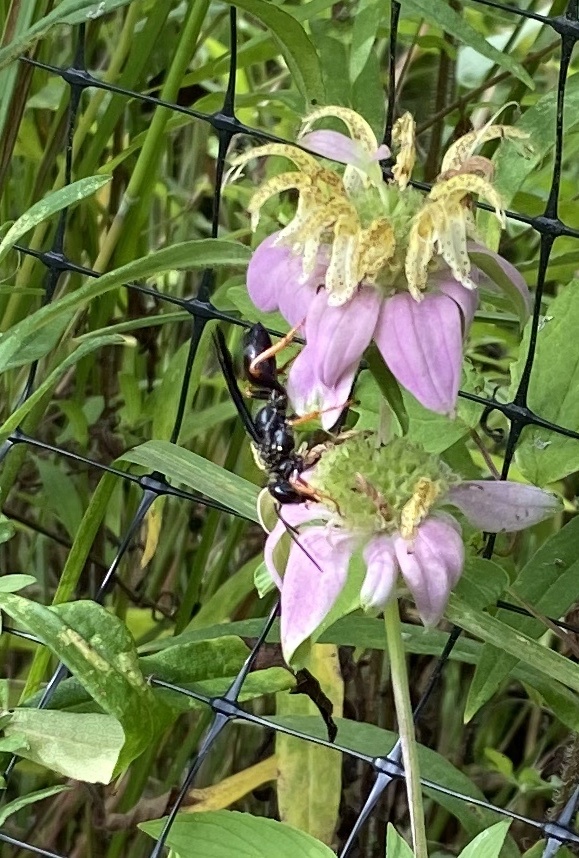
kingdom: Animalia
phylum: Arthropoda
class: Insecta
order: Hymenoptera
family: Sphecidae
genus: Sphex
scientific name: Sphex nudus
